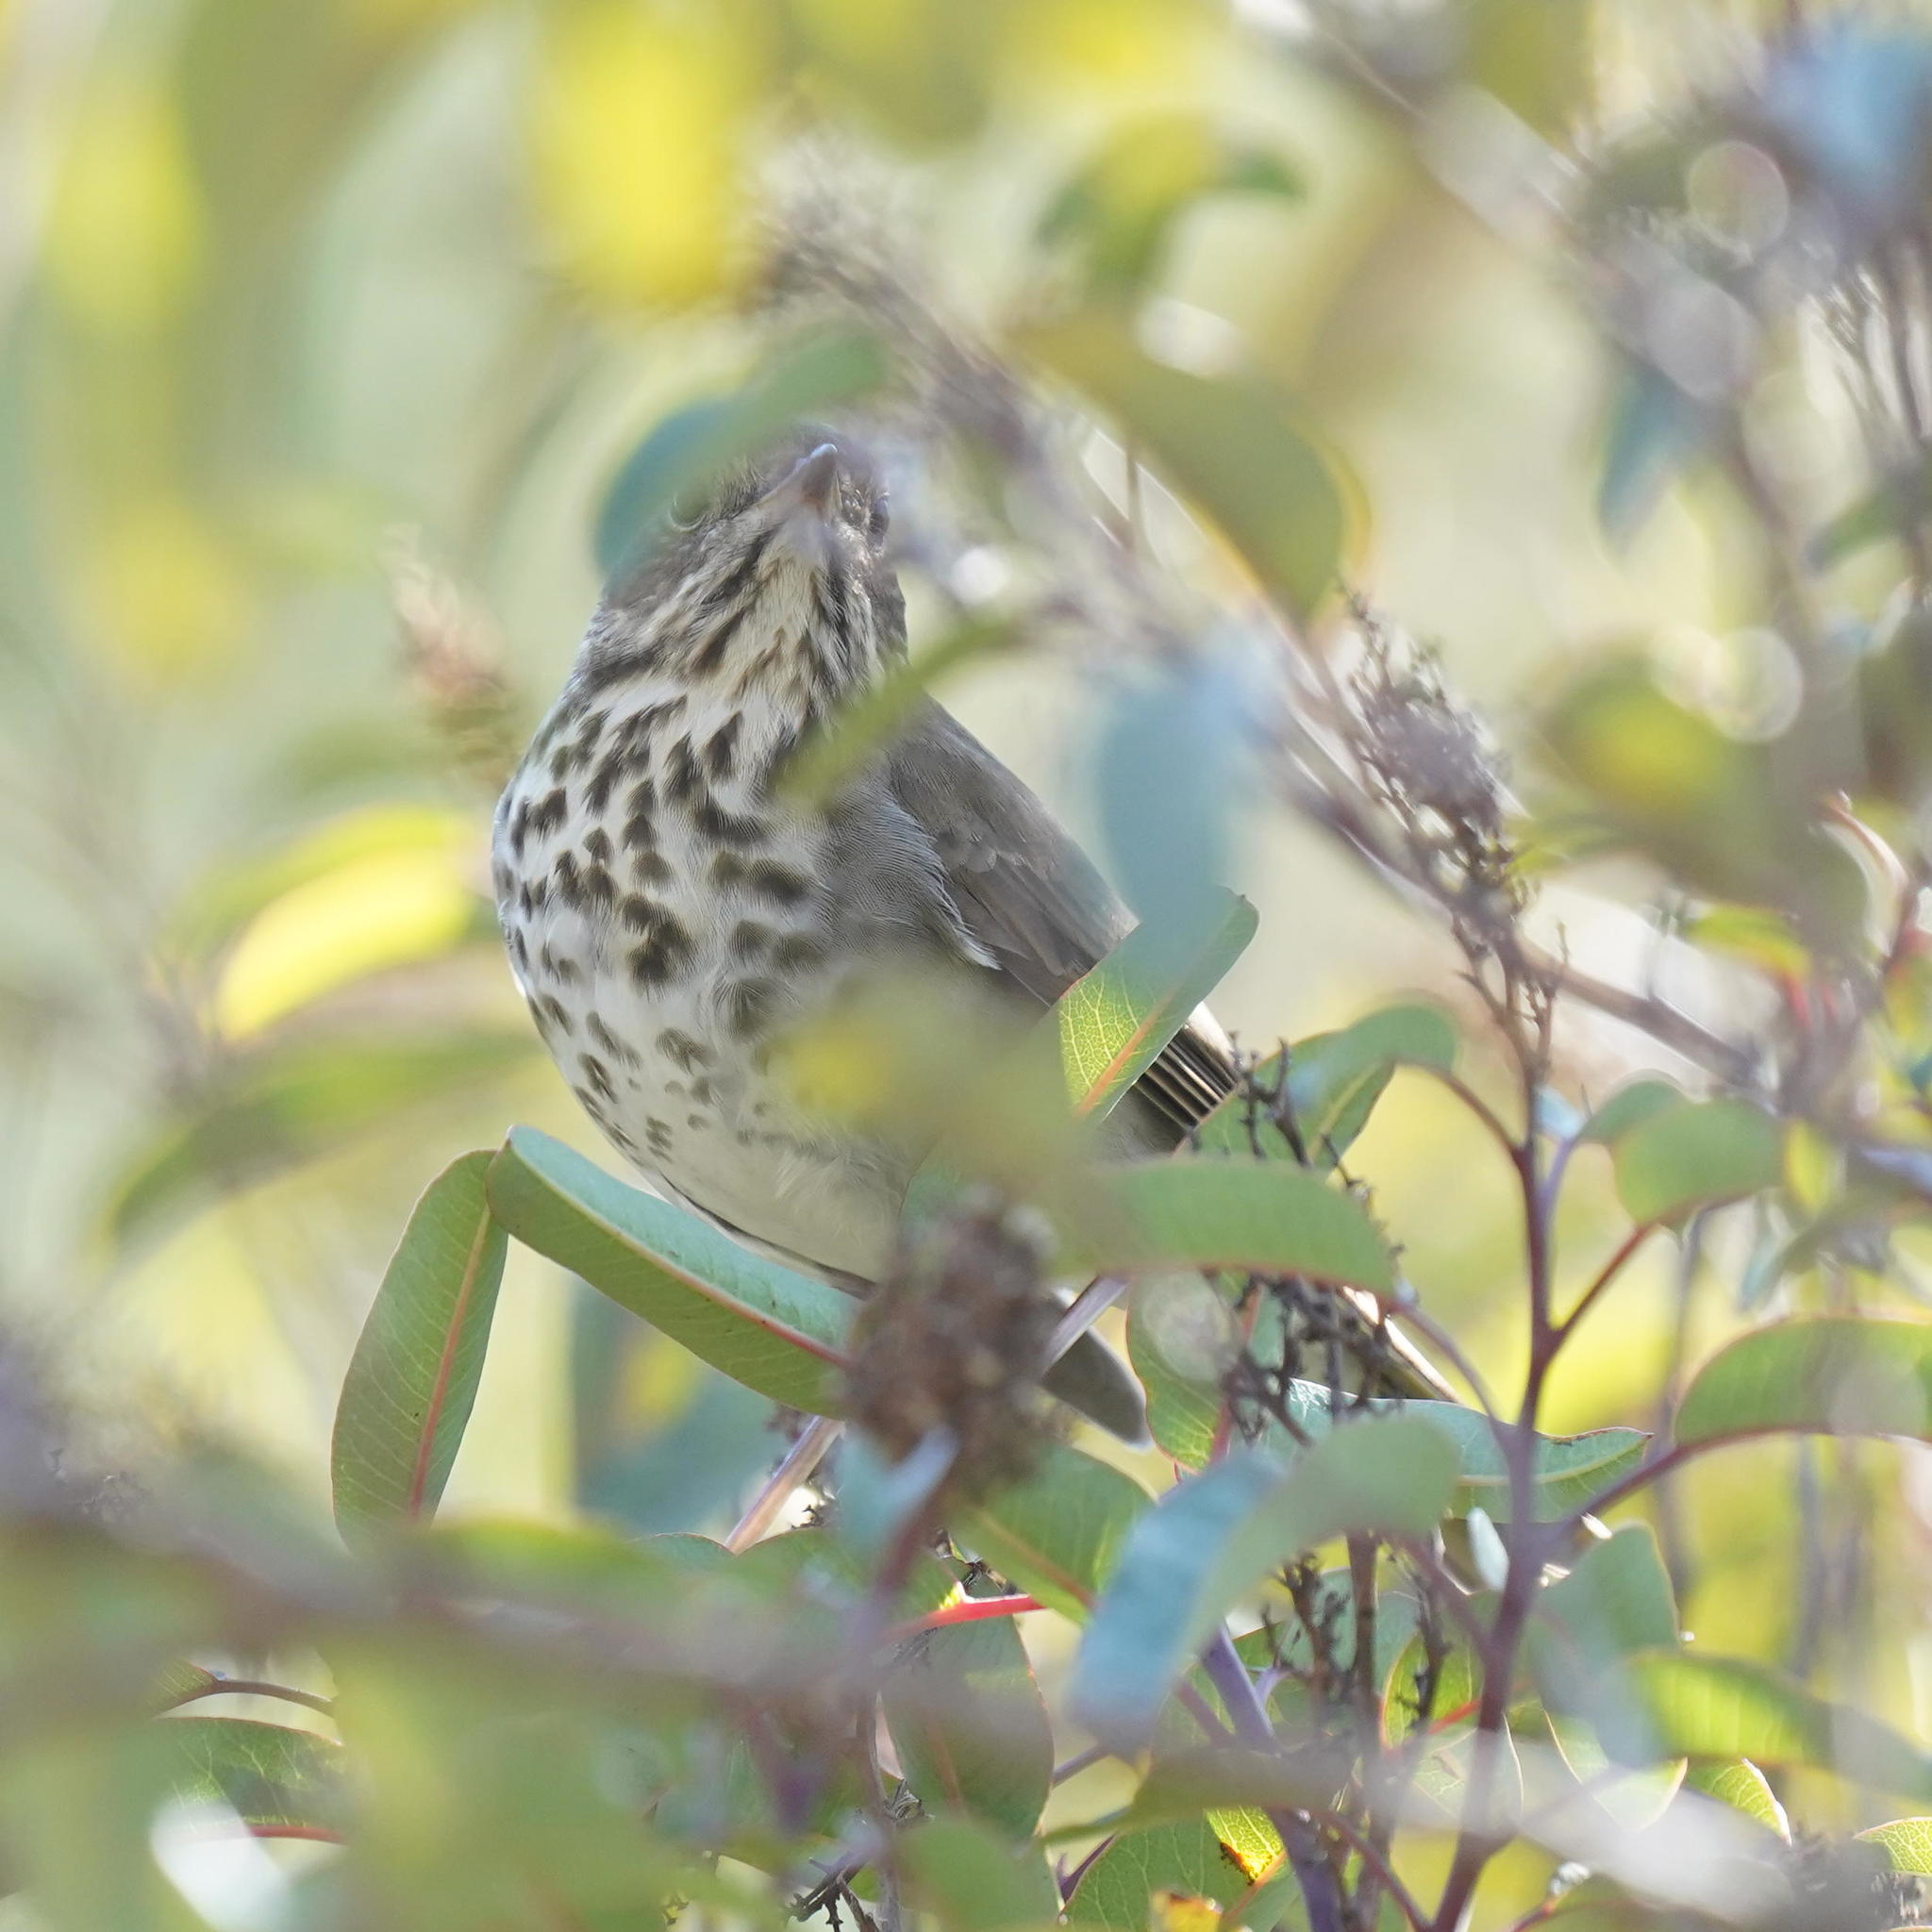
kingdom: Animalia
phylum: Chordata
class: Aves
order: Passeriformes
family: Turdidae
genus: Catharus
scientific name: Catharus guttatus
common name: Hermit thrush
